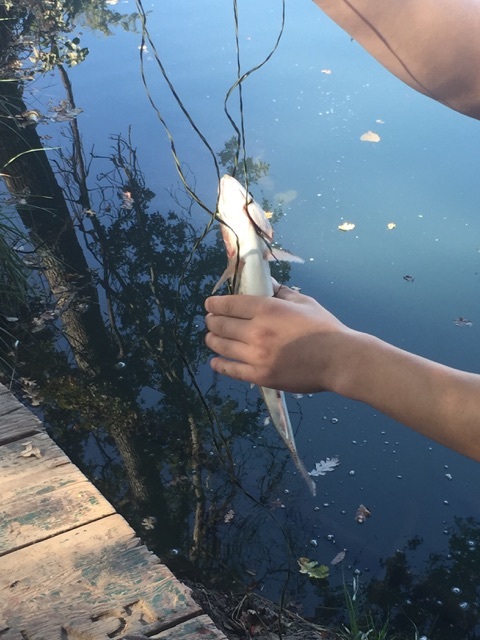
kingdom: Animalia
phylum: Chordata
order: Salmoniformes
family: Salmonidae
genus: Oncorhynchus
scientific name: Oncorhynchus mykiss
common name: Rainbow trout
